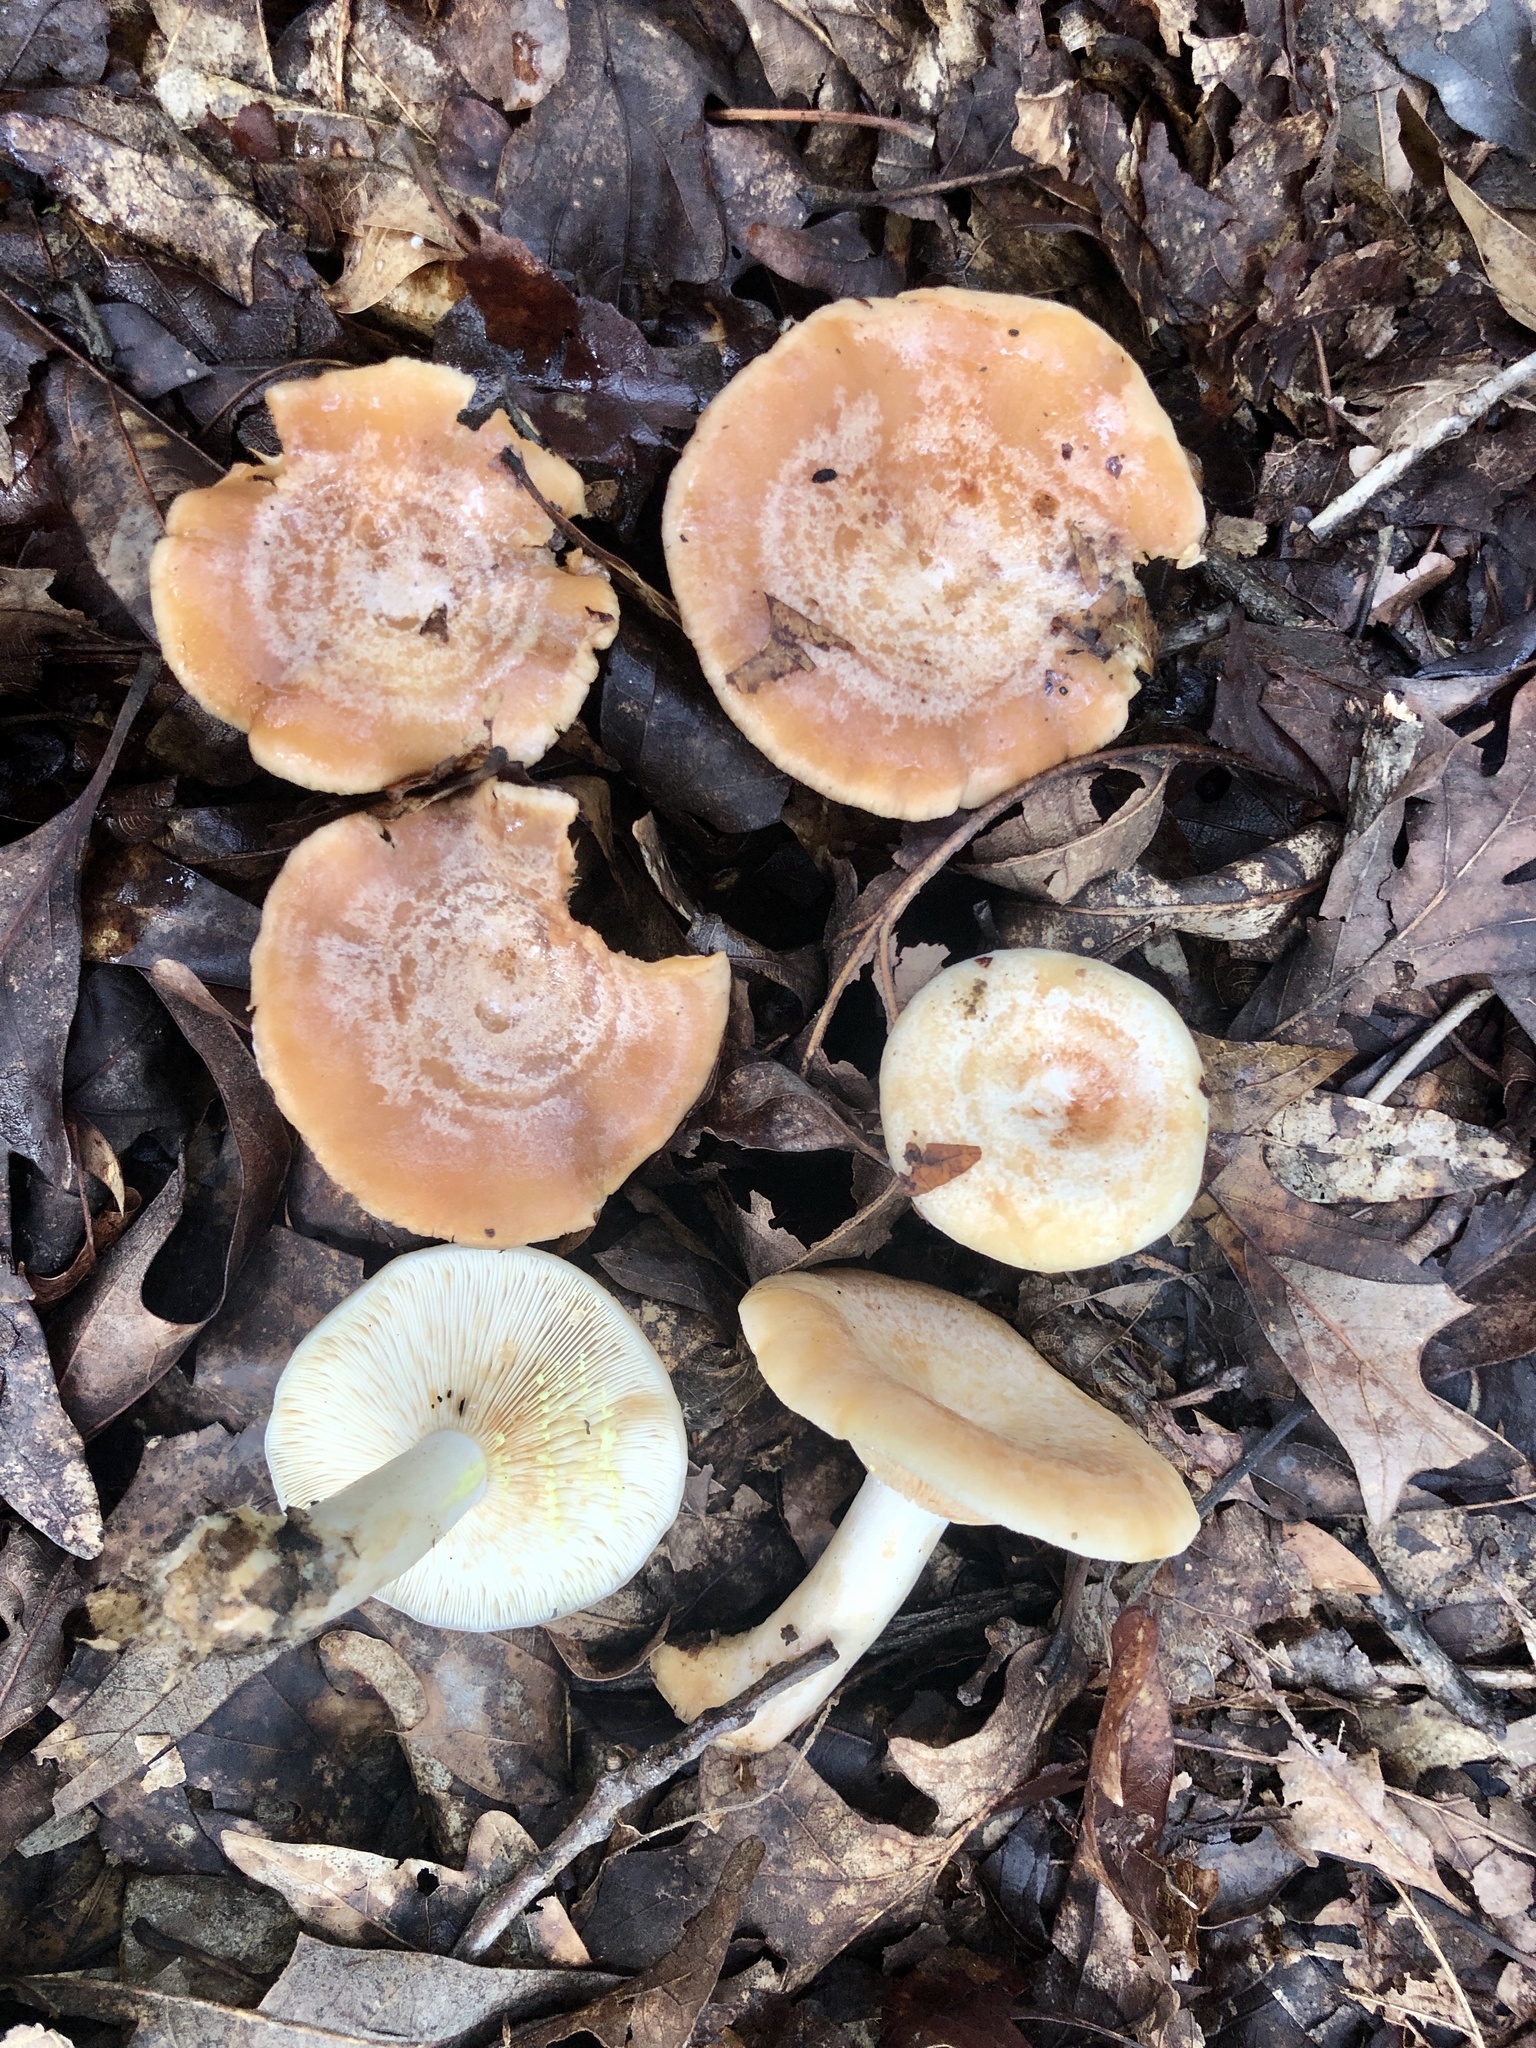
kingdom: Fungi
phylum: Basidiomycota
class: Agaricomycetes
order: Russulales
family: Russulaceae
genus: Lactarius
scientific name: Lactarius chrysorrheus
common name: Yellowdrop milkcap
